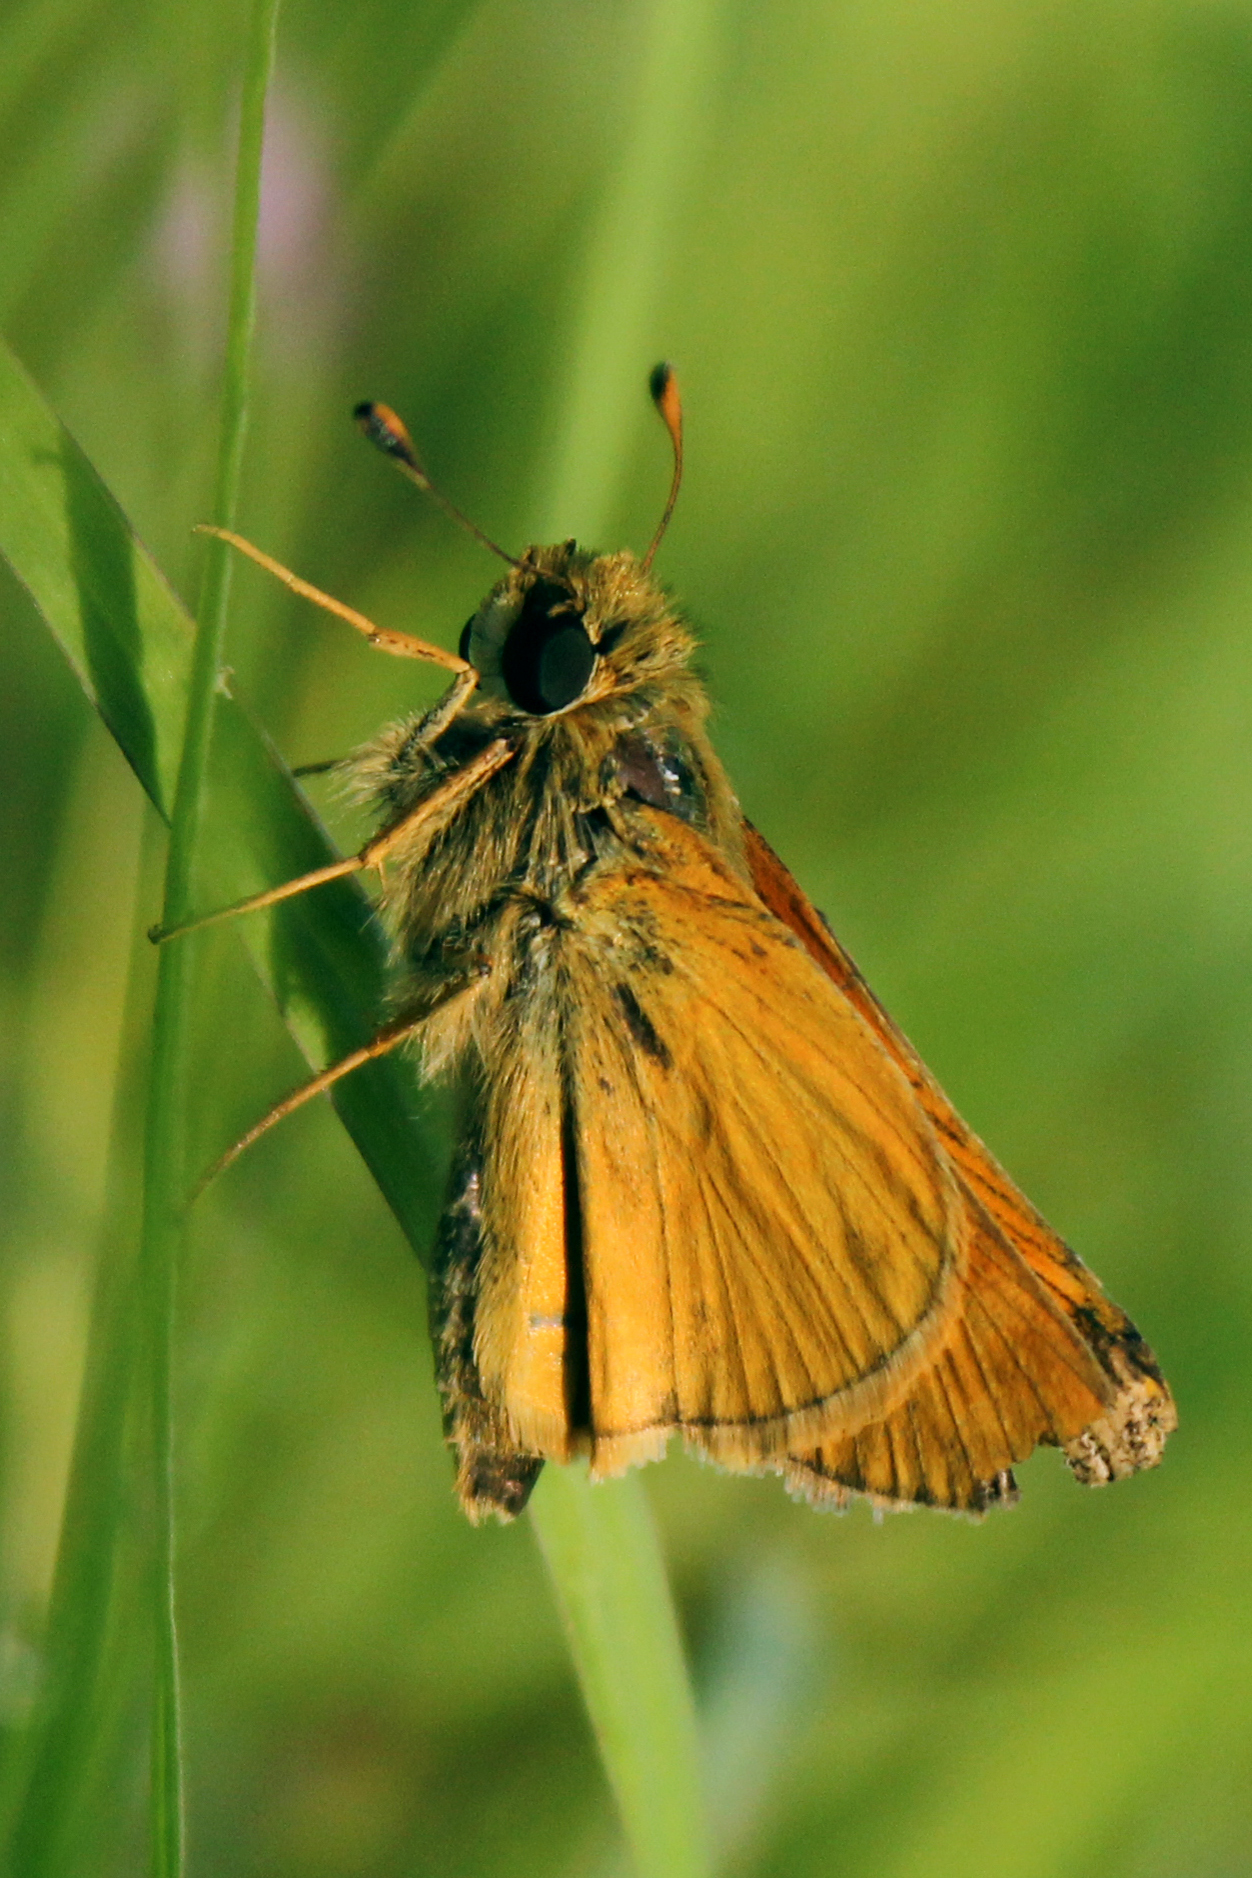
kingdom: Animalia
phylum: Arthropoda
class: Insecta
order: Lepidoptera
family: Hesperiidae
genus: Atalopedes
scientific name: Atalopedes
